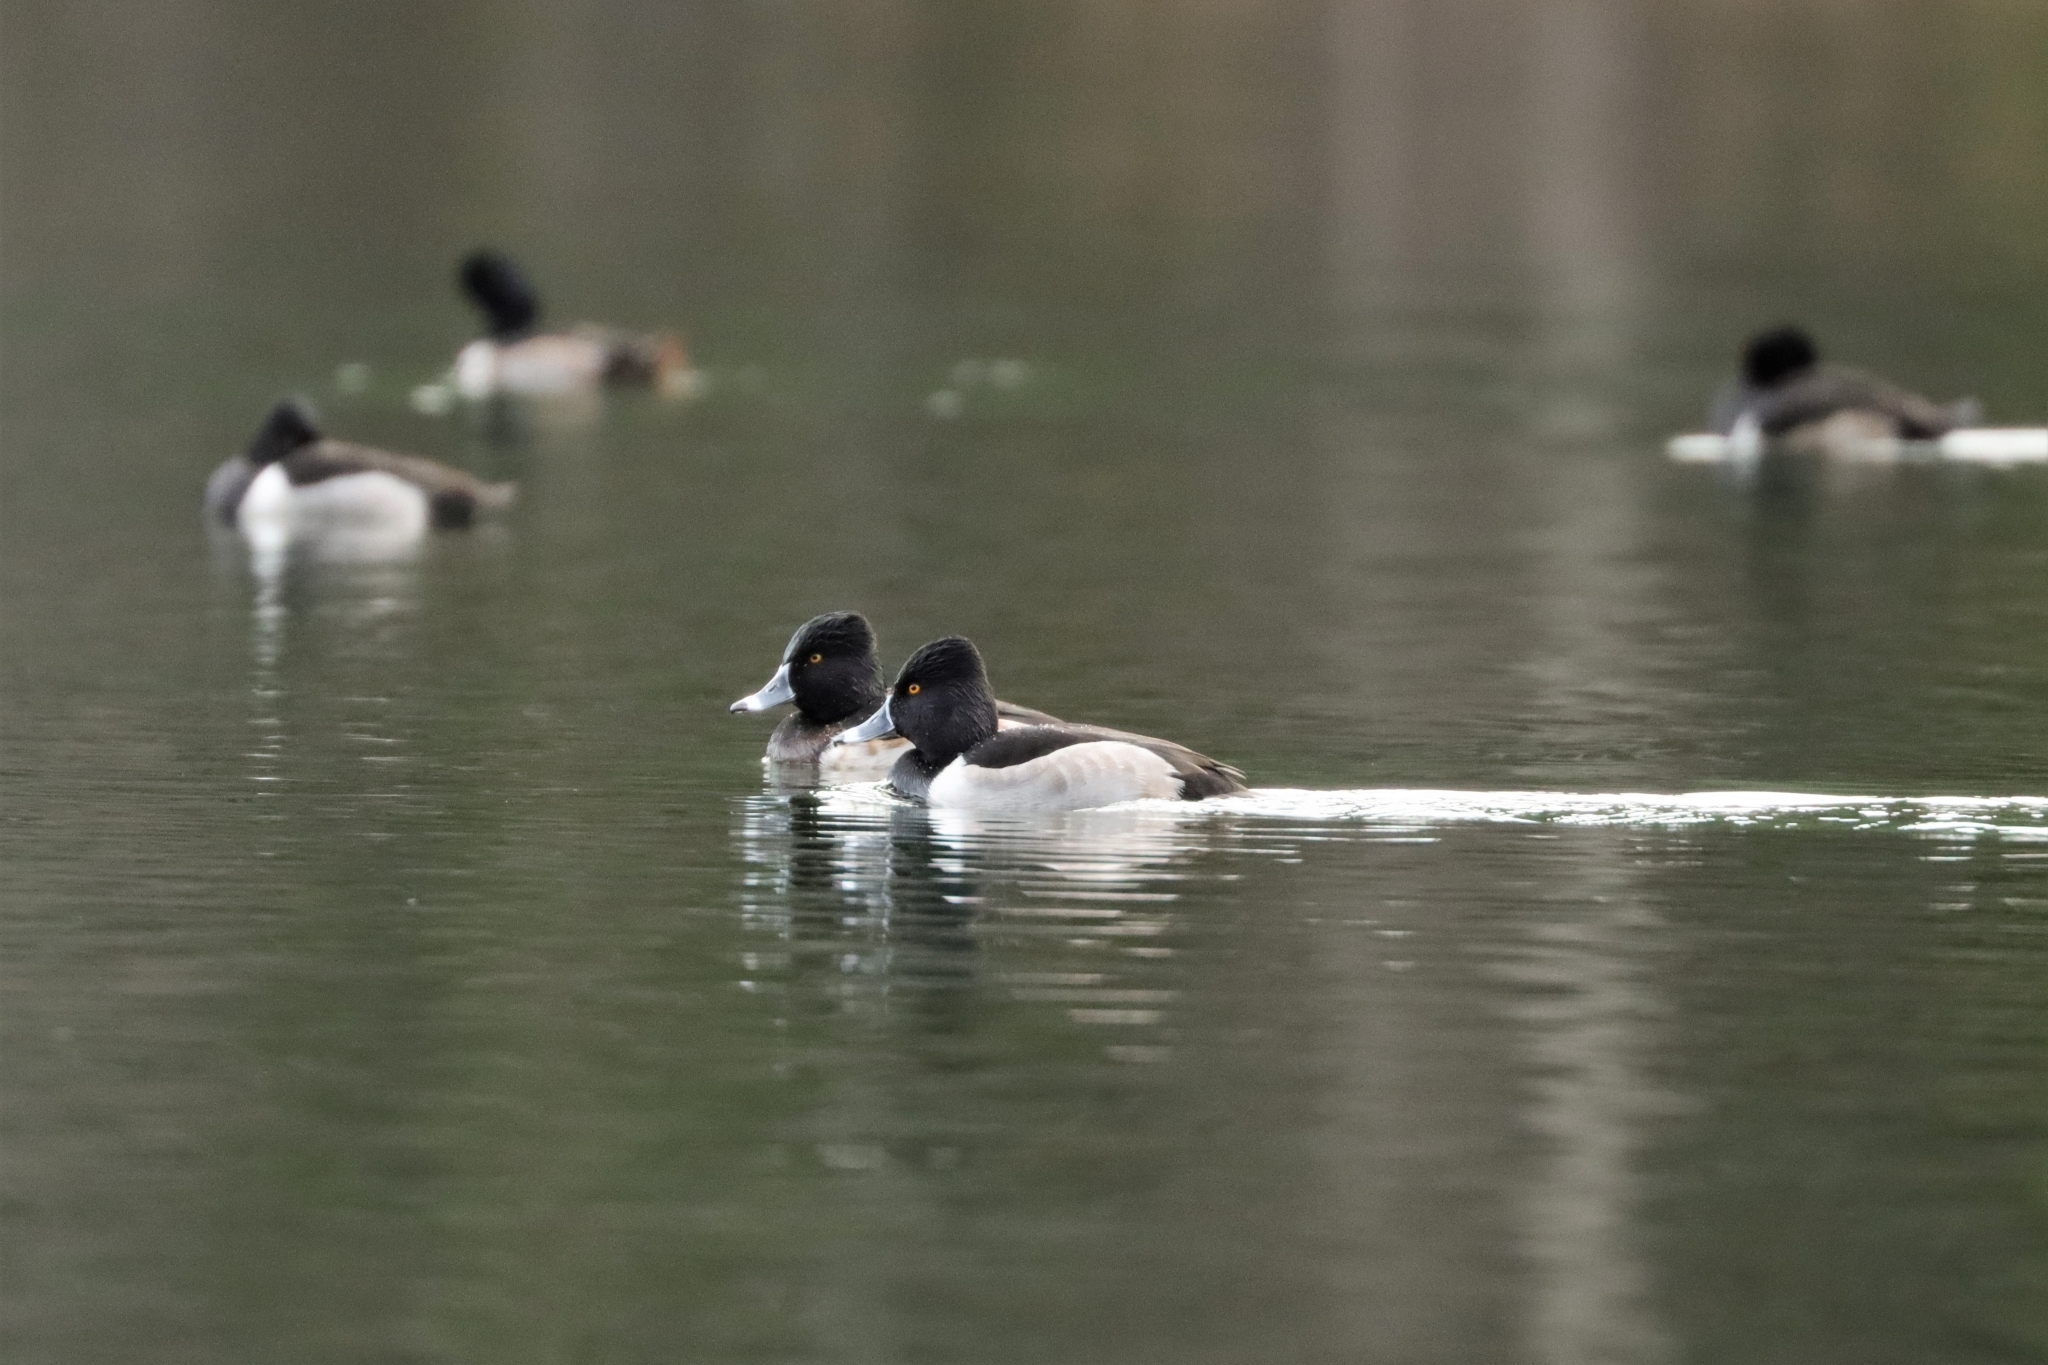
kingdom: Animalia
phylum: Chordata
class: Aves
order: Anseriformes
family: Anatidae
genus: Aythya
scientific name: Aythya collaris
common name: Ring-necked duck
